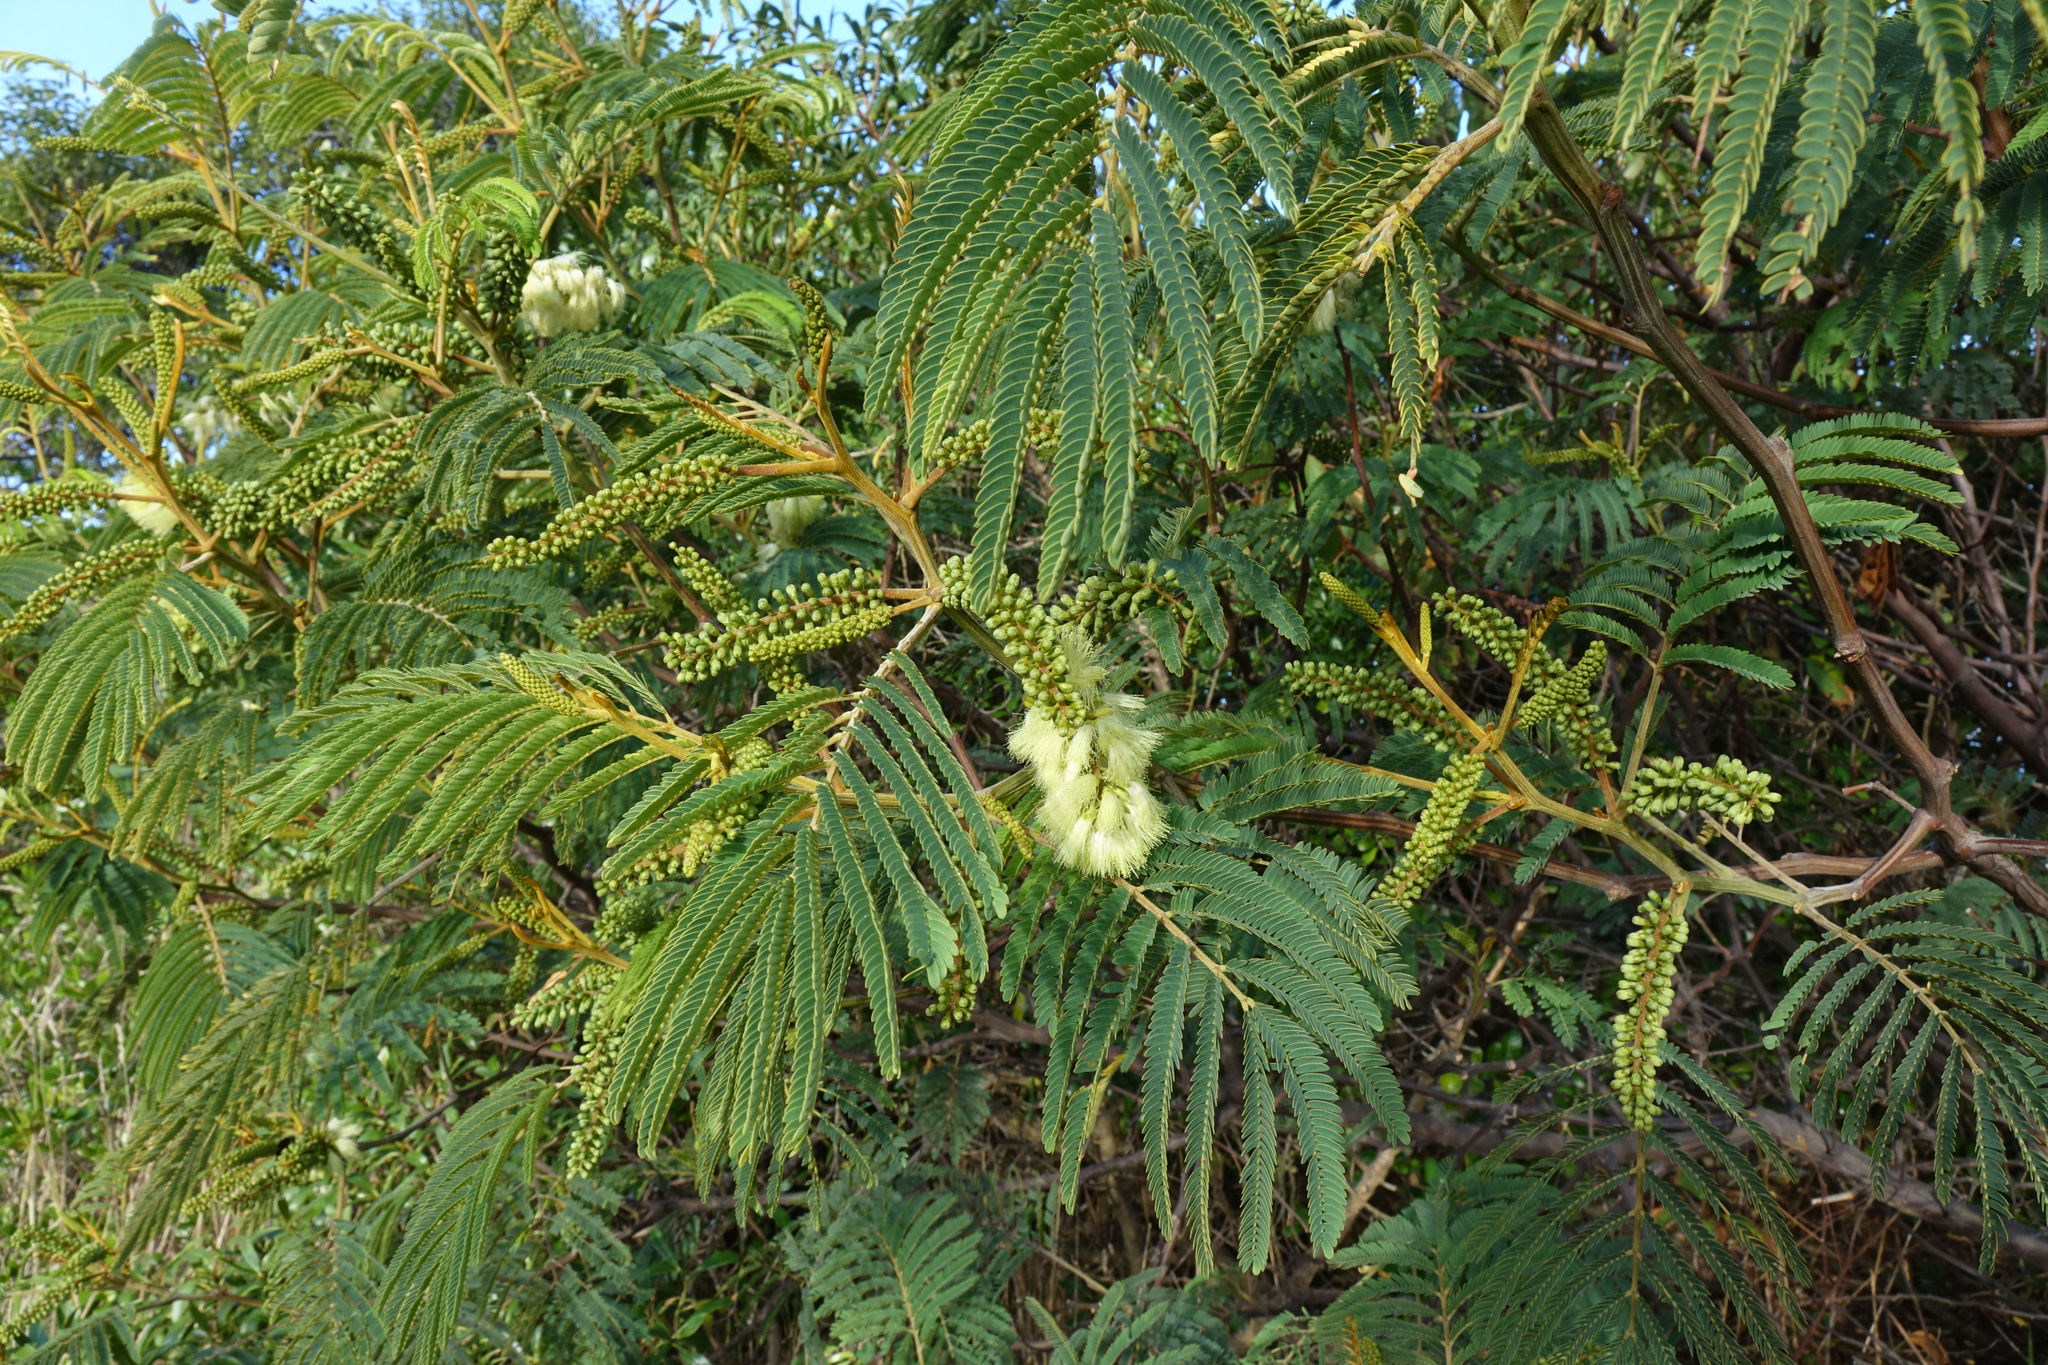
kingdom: Plantae
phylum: Tracheophyta
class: Magnoliopsida
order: Fabales
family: Fabaceae
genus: Paraserianthes
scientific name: Paraserianthes lophantha
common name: Plume albizia
